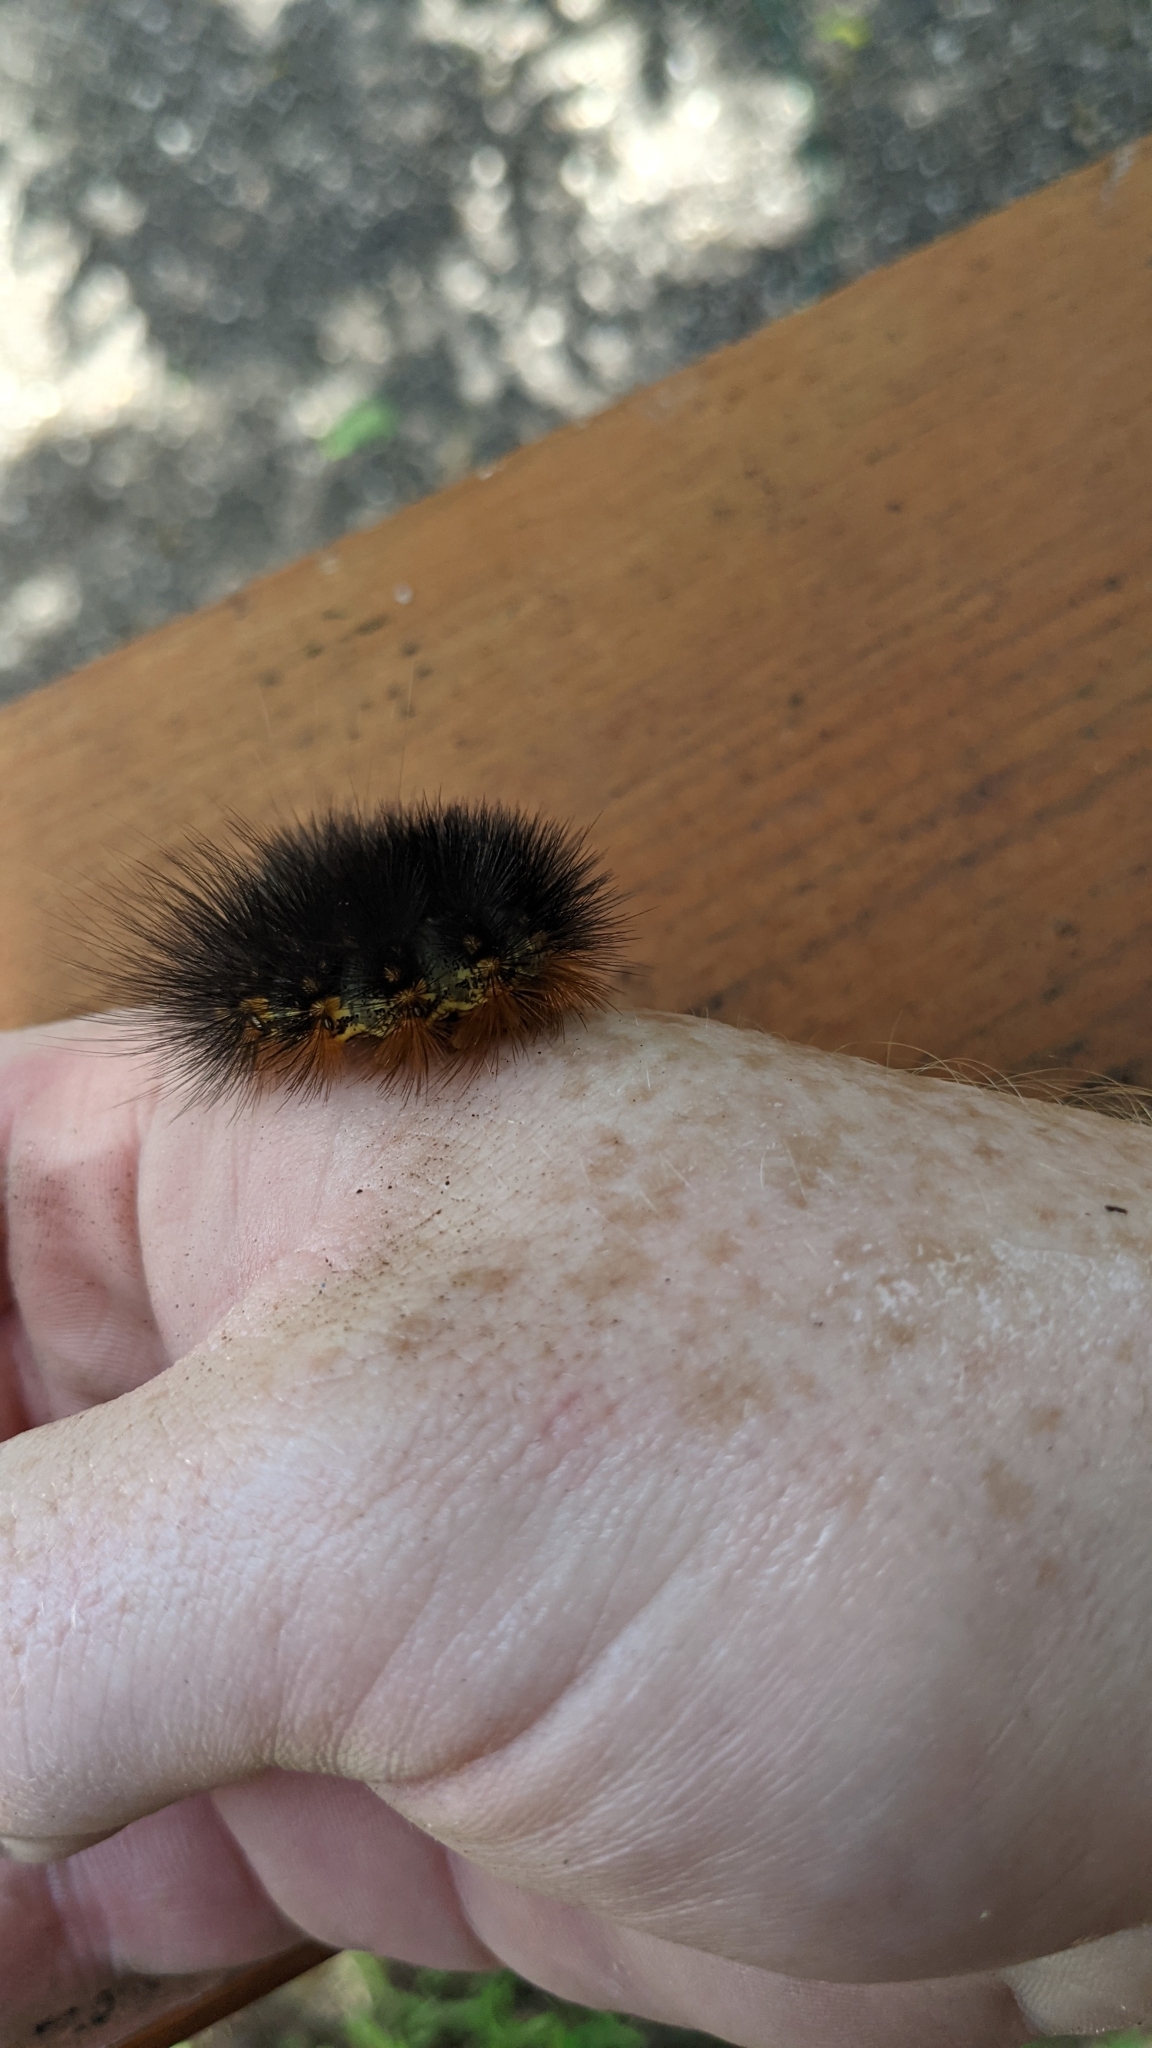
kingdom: Animalia
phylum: Arthropoda
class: Insecta
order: Lepidoptera
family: Erebidae
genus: Estigmene
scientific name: Estigmene acrea
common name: Salt marsh moth
